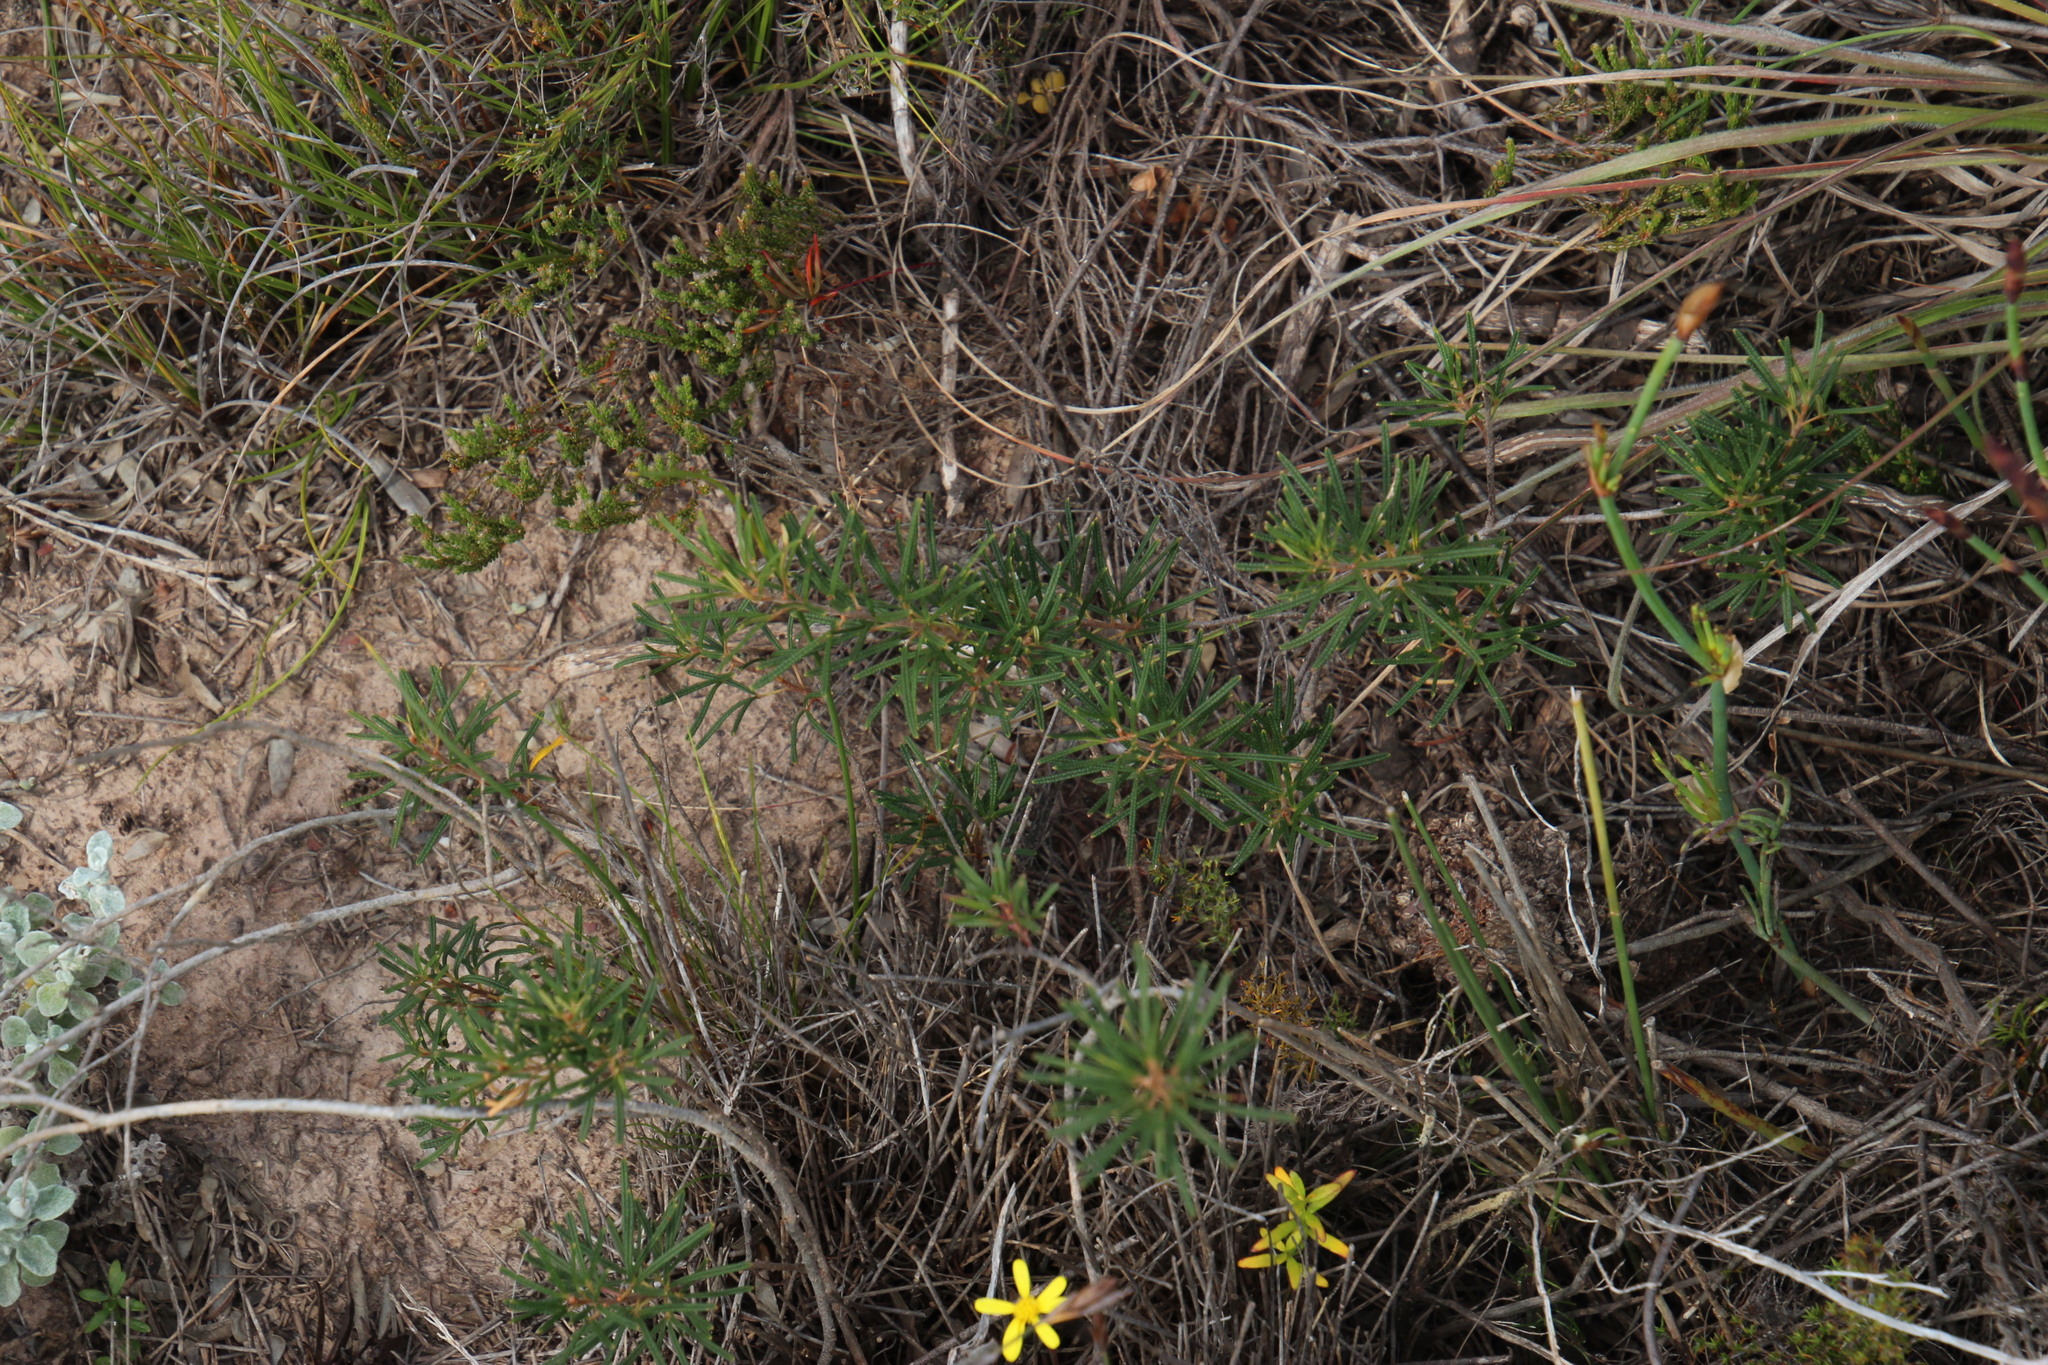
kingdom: Plantae
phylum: Tracheophyta
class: Magnoliopsida
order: Sapindales
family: Anacardiaceae
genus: Searsia
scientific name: Searsia rosmarinifolia
